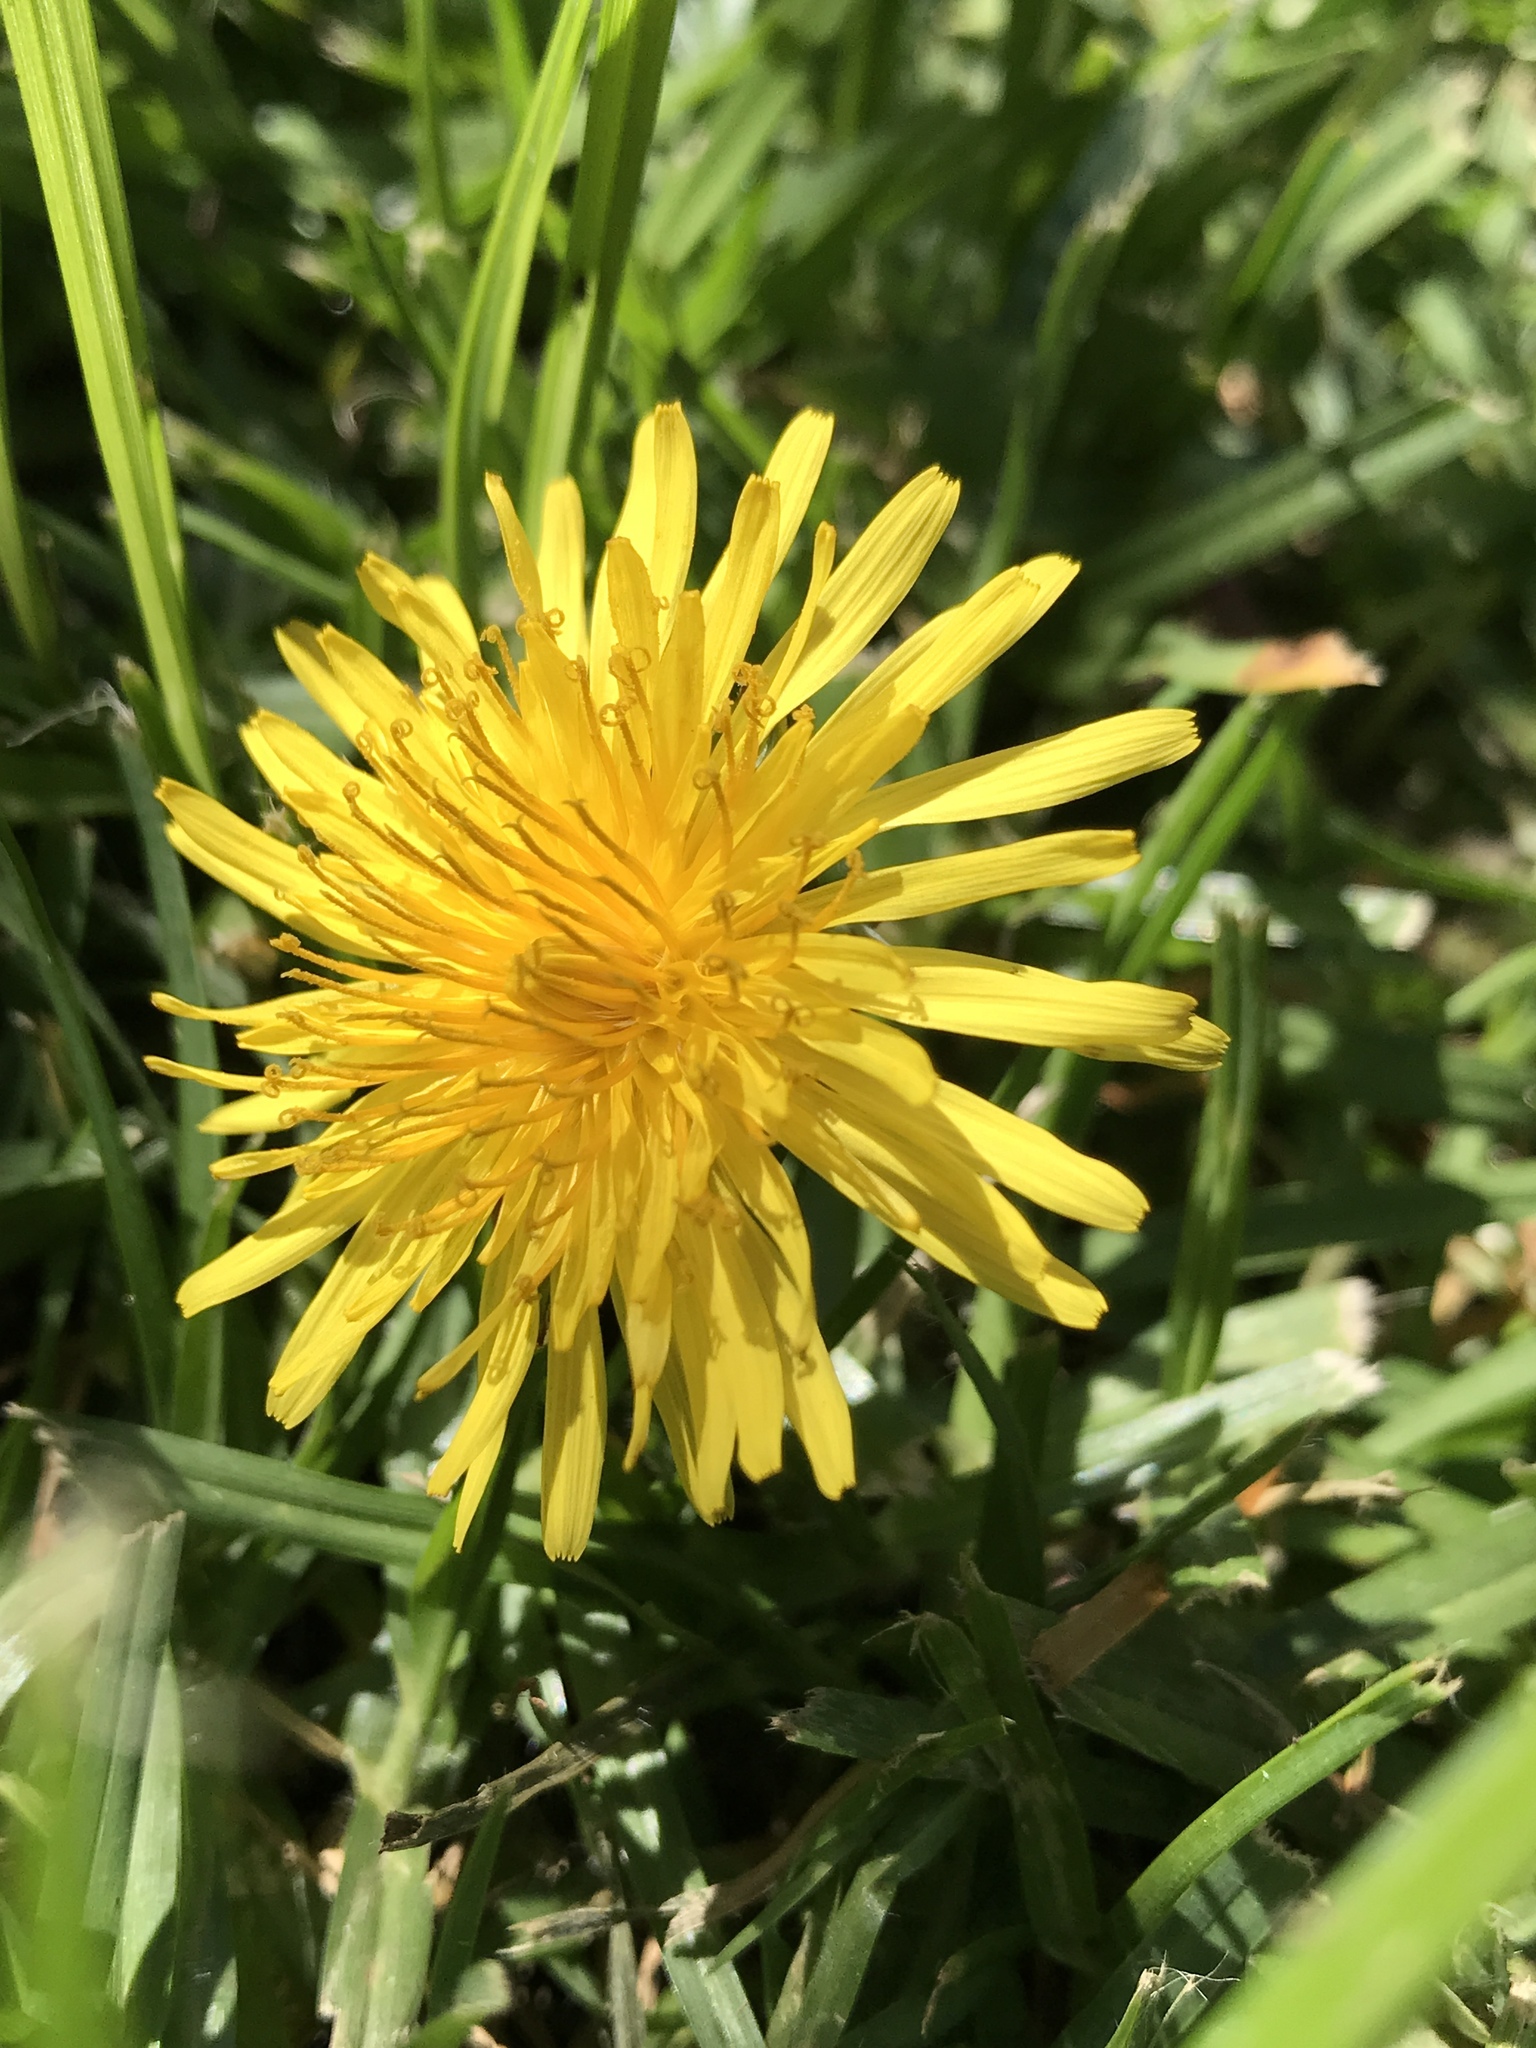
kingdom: Plantae
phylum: Tracheophyta
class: Magnoliopsida
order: Asterales
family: Asteraceae
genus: Taraxacum
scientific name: Taraxacum officinale
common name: Common dandelion
